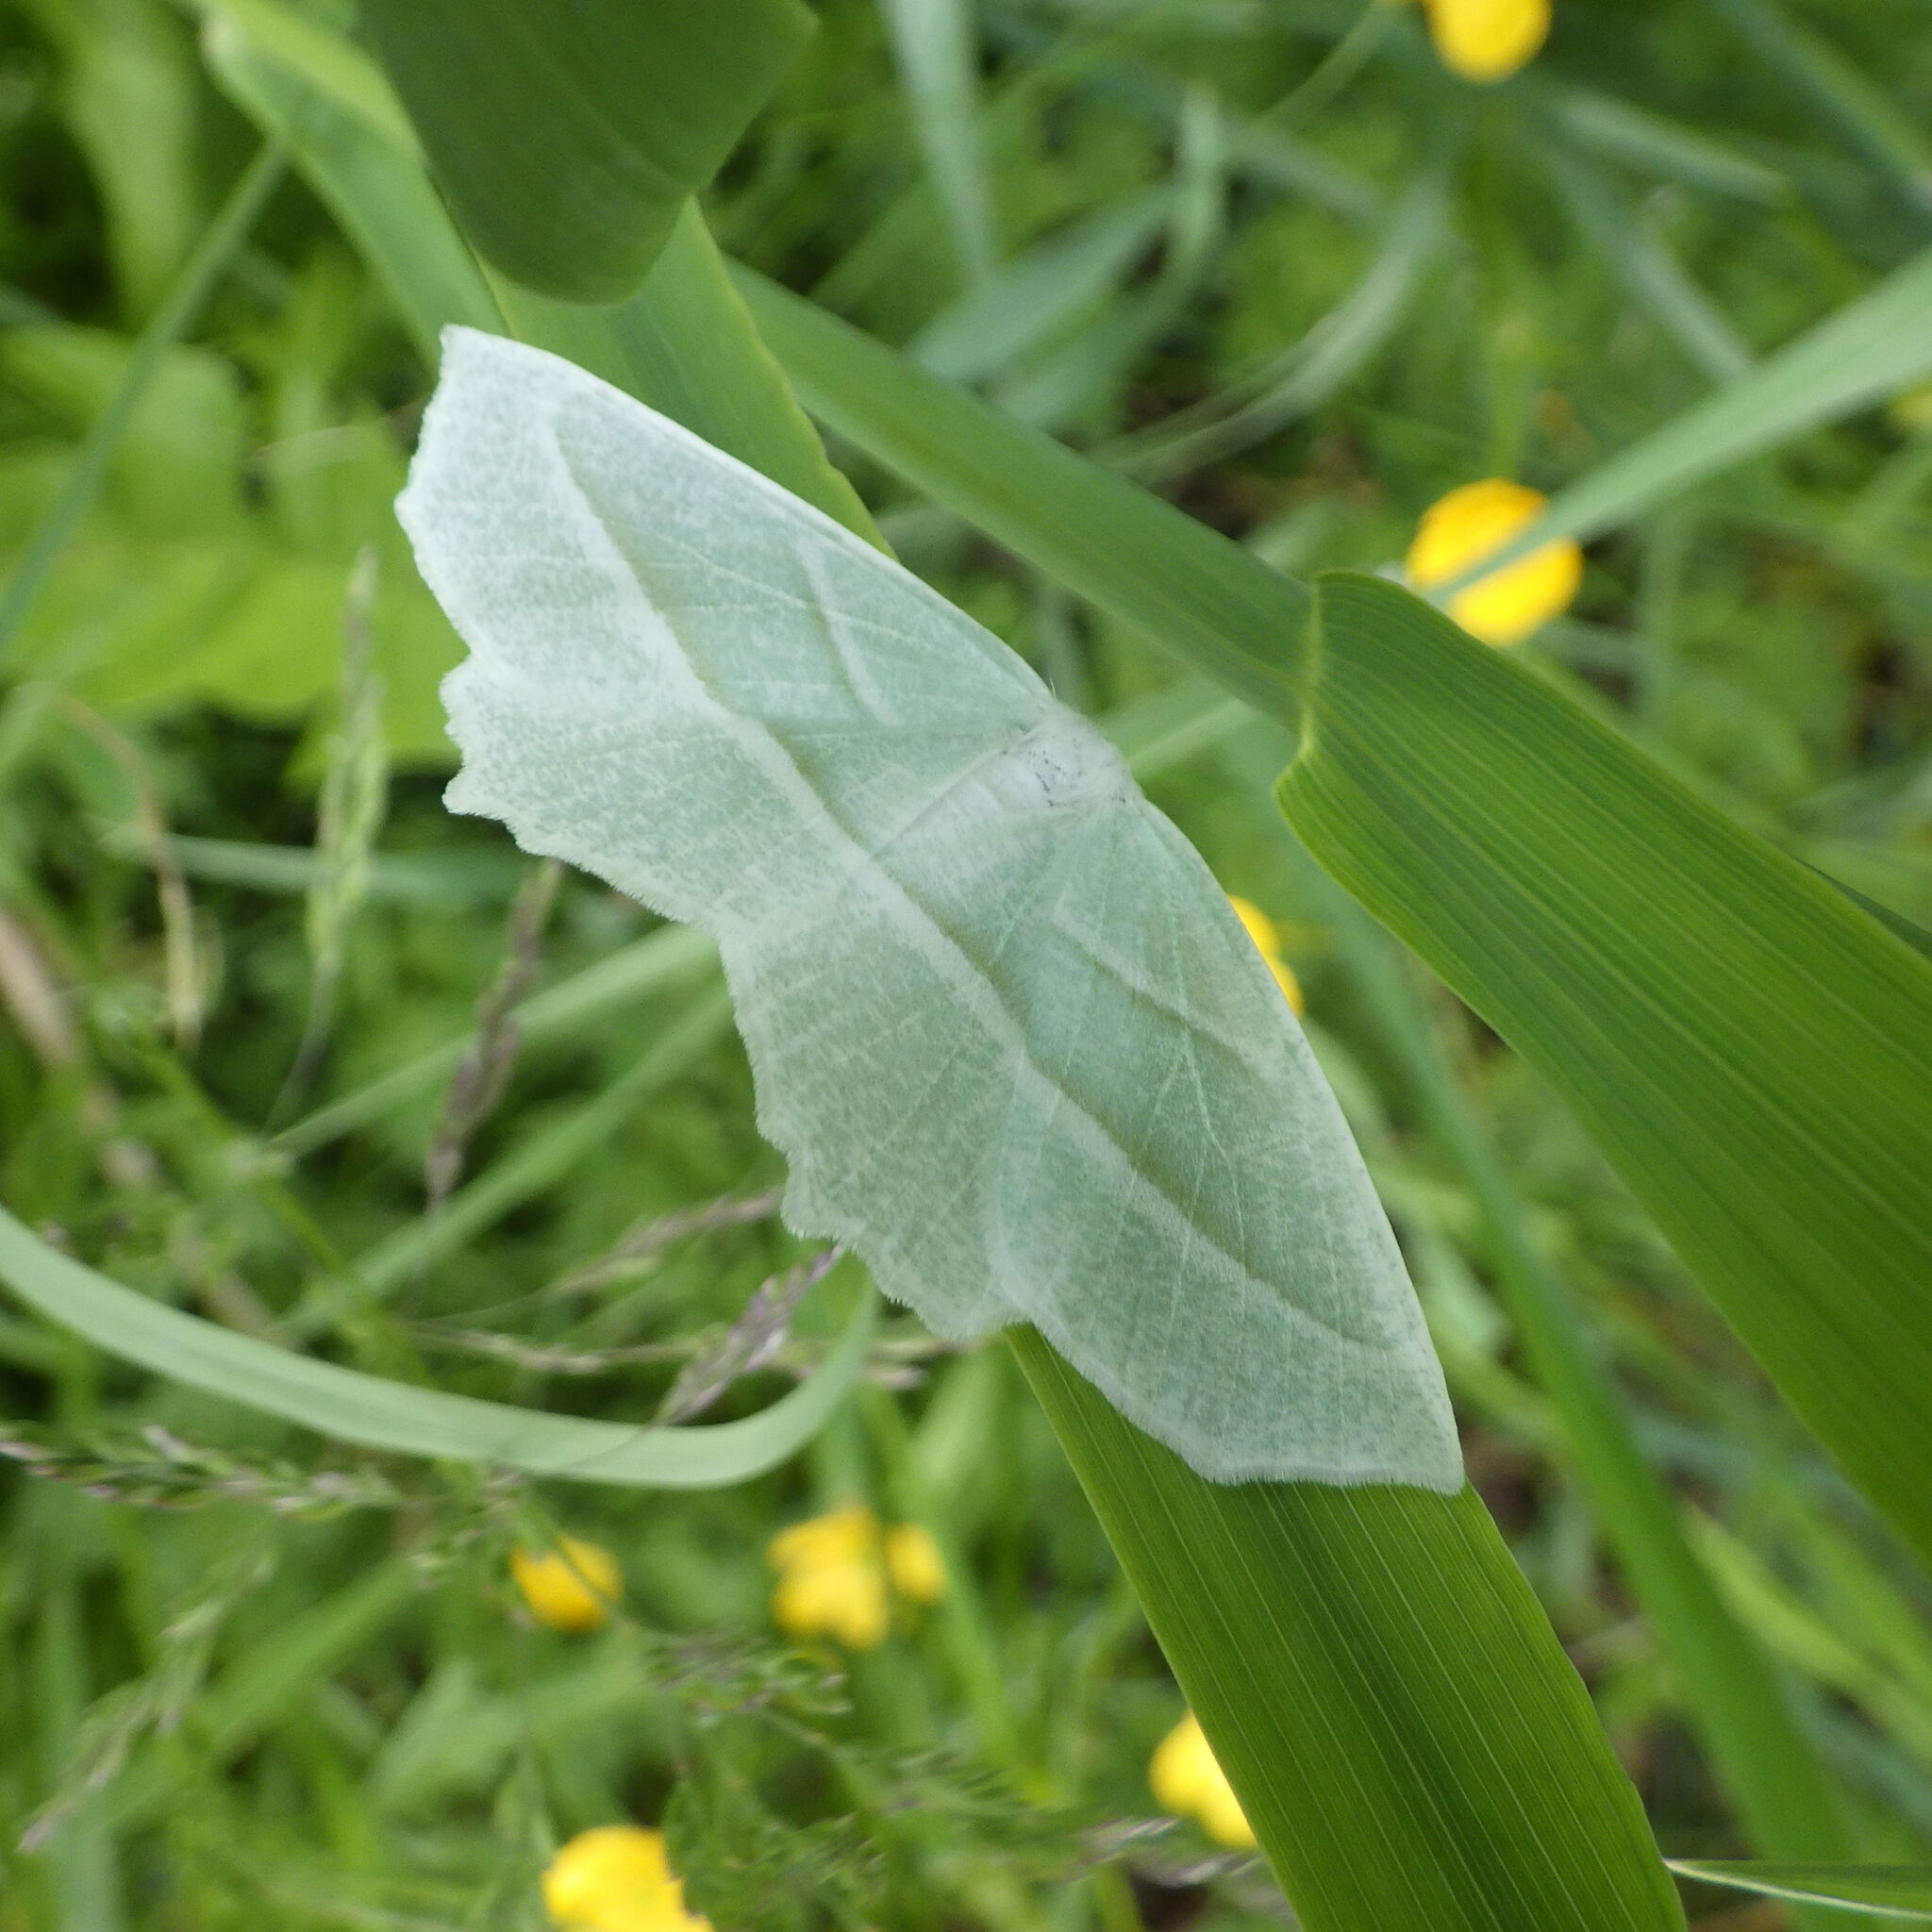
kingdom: Animalia
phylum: Arthropoda
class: Insecta
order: Lepidoptera
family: Geometridae
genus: Campaea
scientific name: Campaea perlata
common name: Fringed looper
